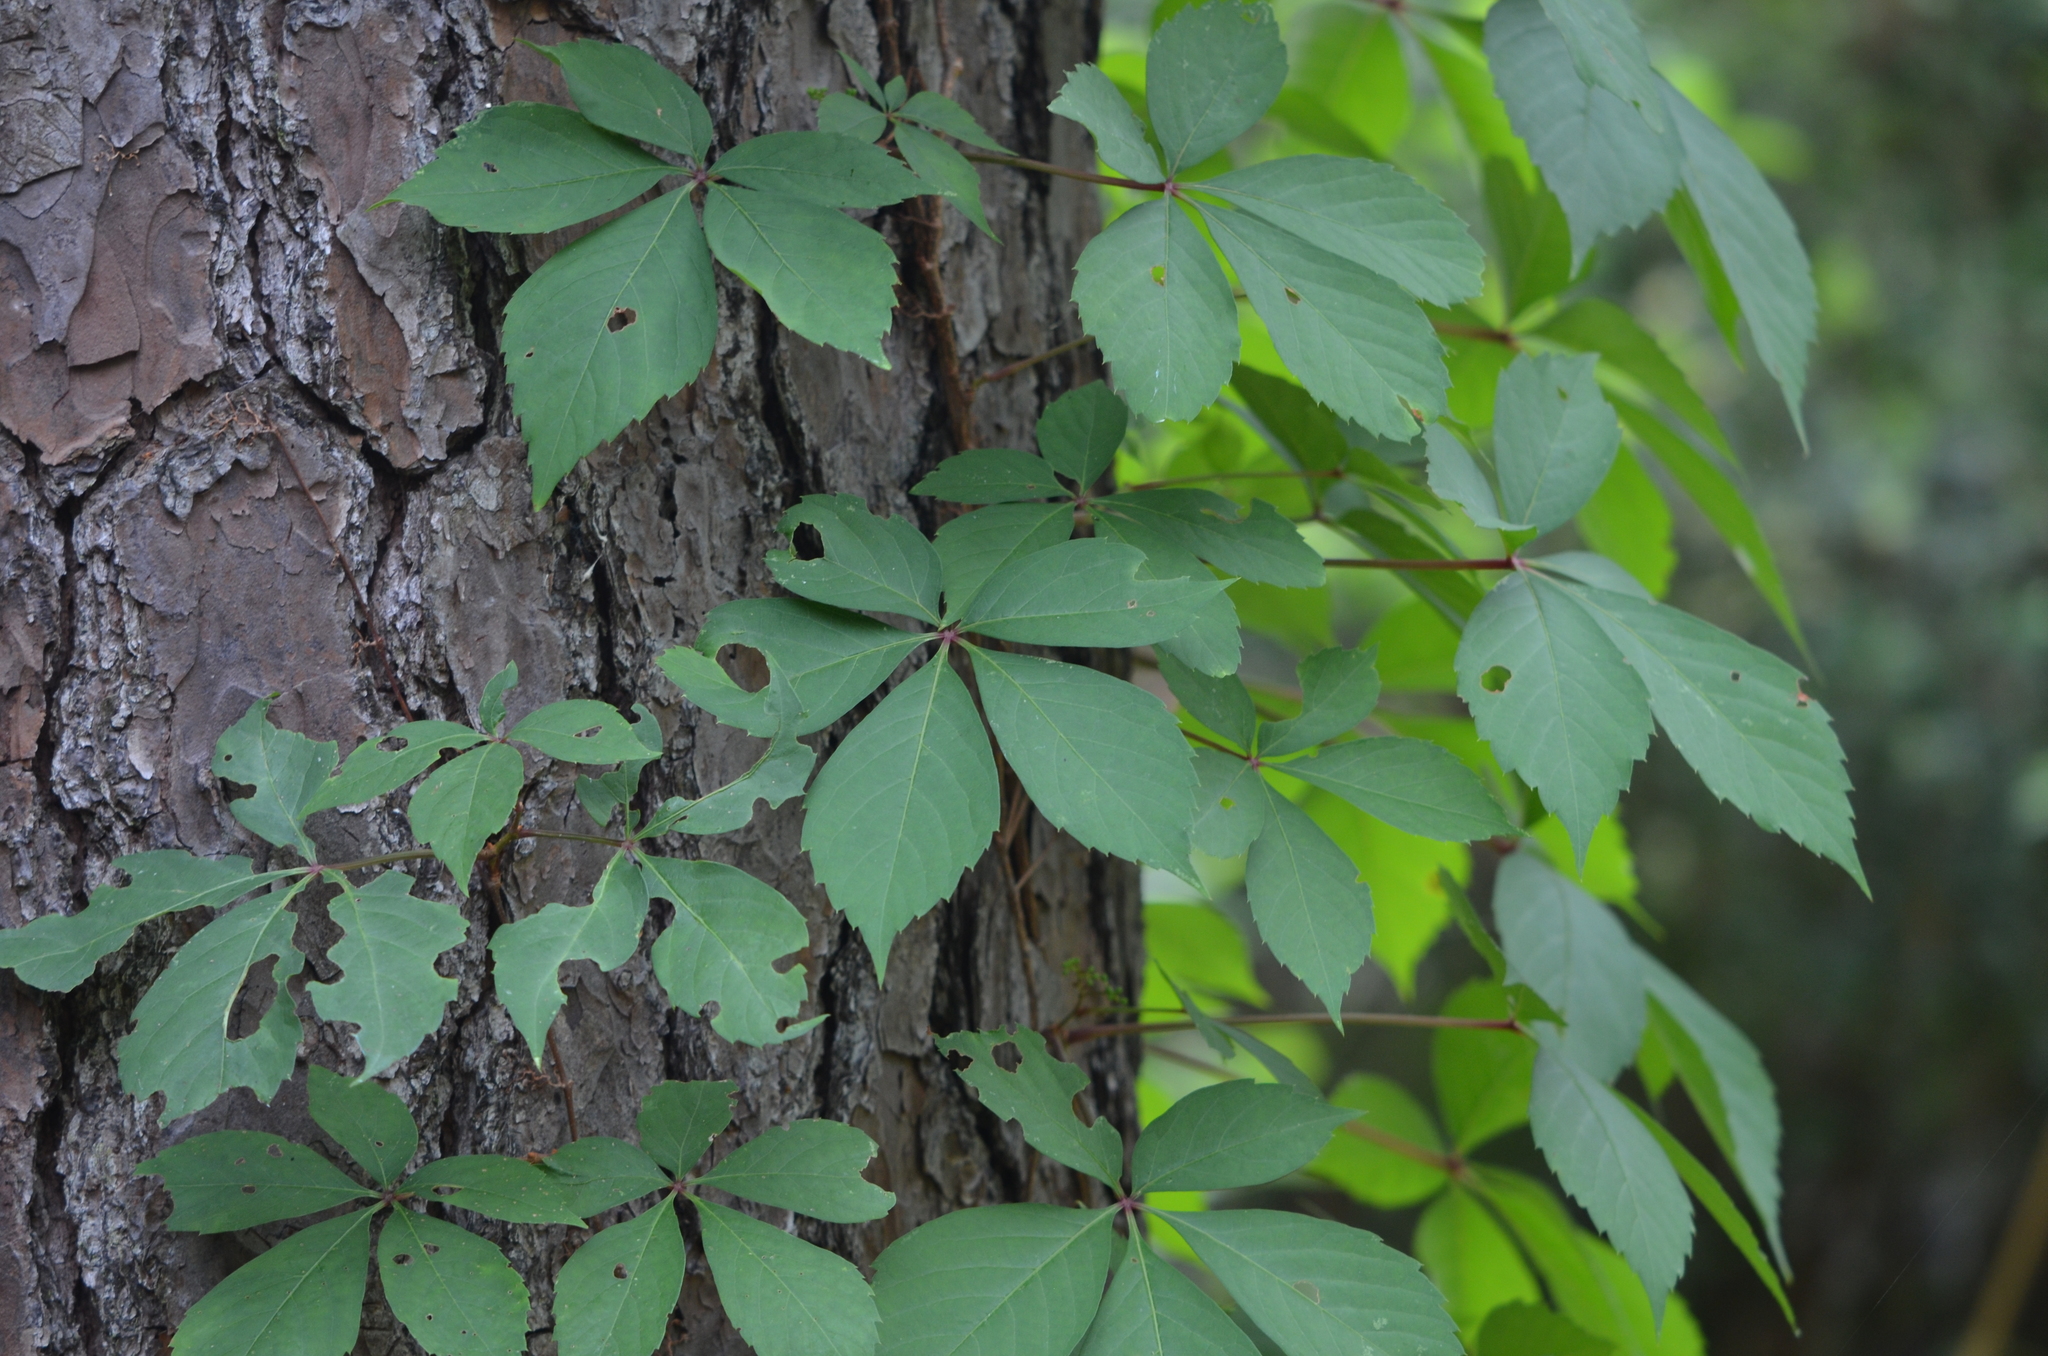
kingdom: Plantae
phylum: Tracheophyta
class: Magnoliopsida
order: Vitales
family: Vitaceae
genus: Parthenocissus
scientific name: Parthenocissus quinquefolia
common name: Virginia-creeper
